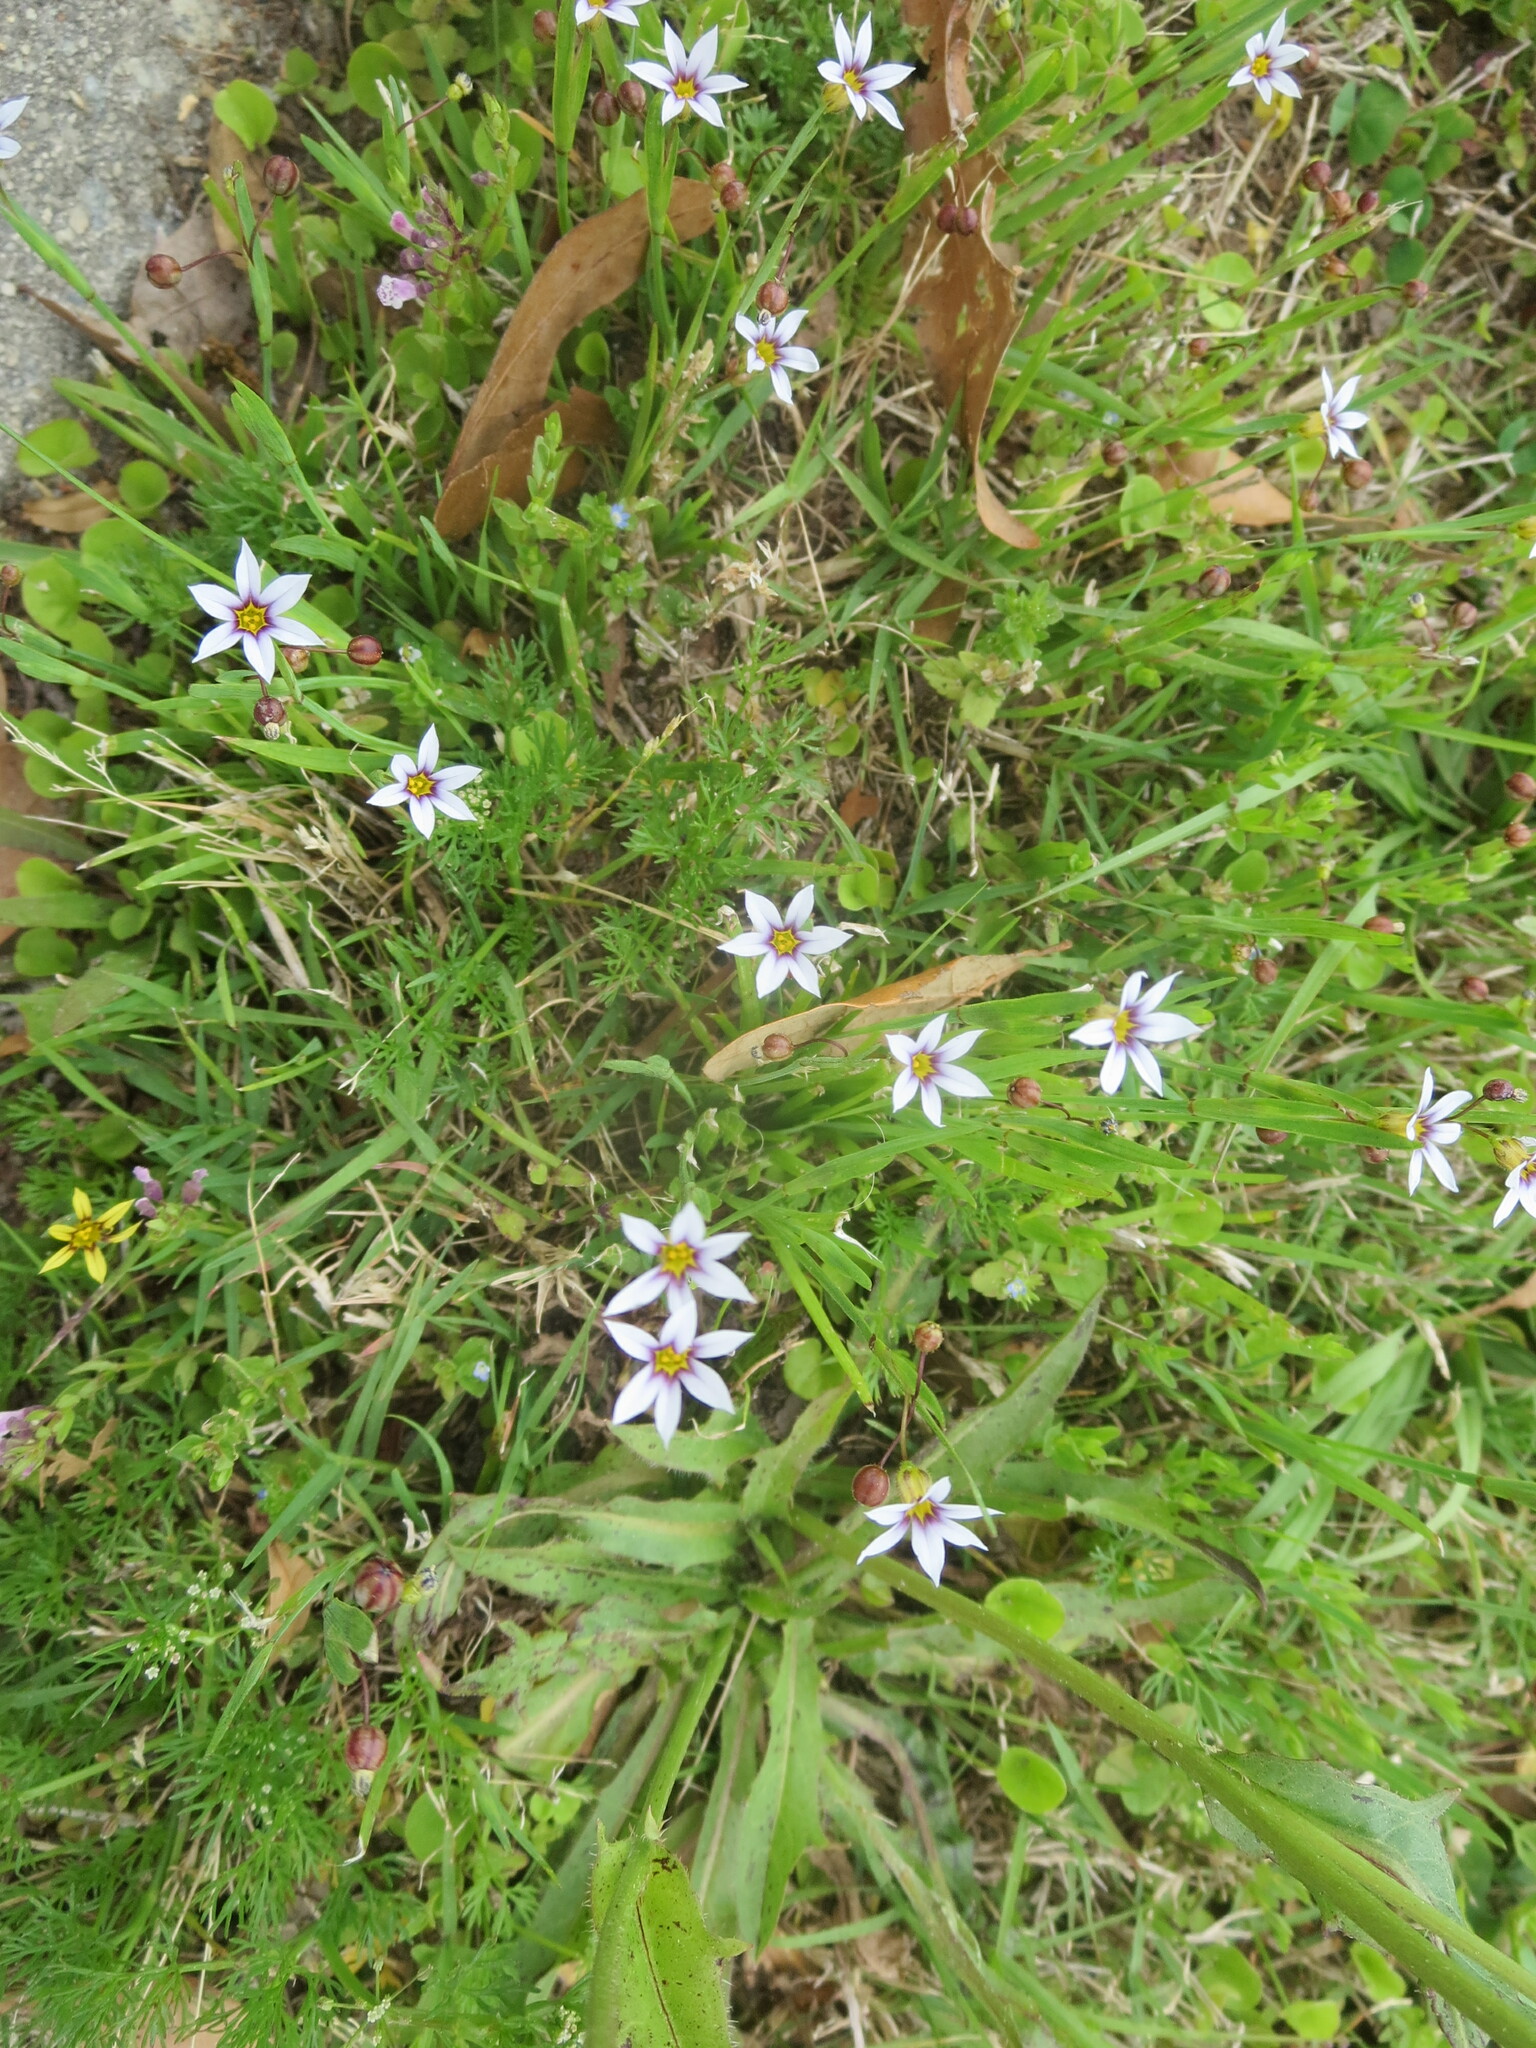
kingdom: Plantae
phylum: Tracheophyta
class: Liliopsida
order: Asparagales
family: Iridaceae
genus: Sisyrinchium
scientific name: Sisyrinchium micranthum
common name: Bermuda pigroot
